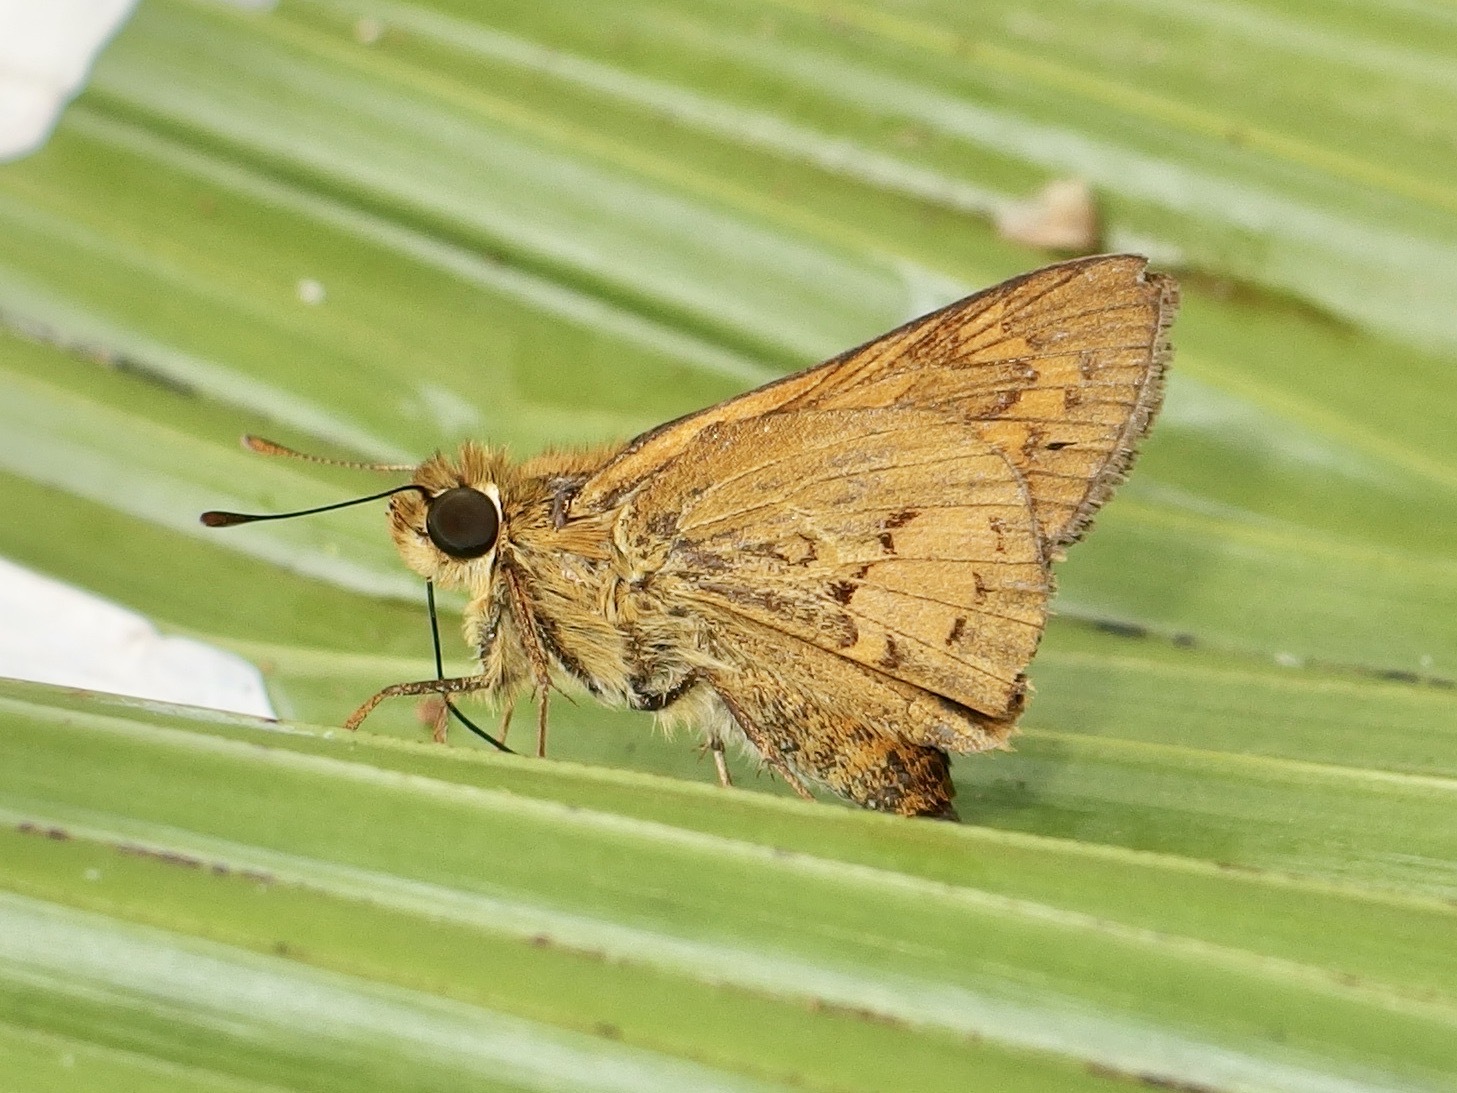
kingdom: Animalia
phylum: Arthropoda
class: Insecta
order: Lepidoptera
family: Hesperiidae
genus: Telicota
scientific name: Telicota paceka
